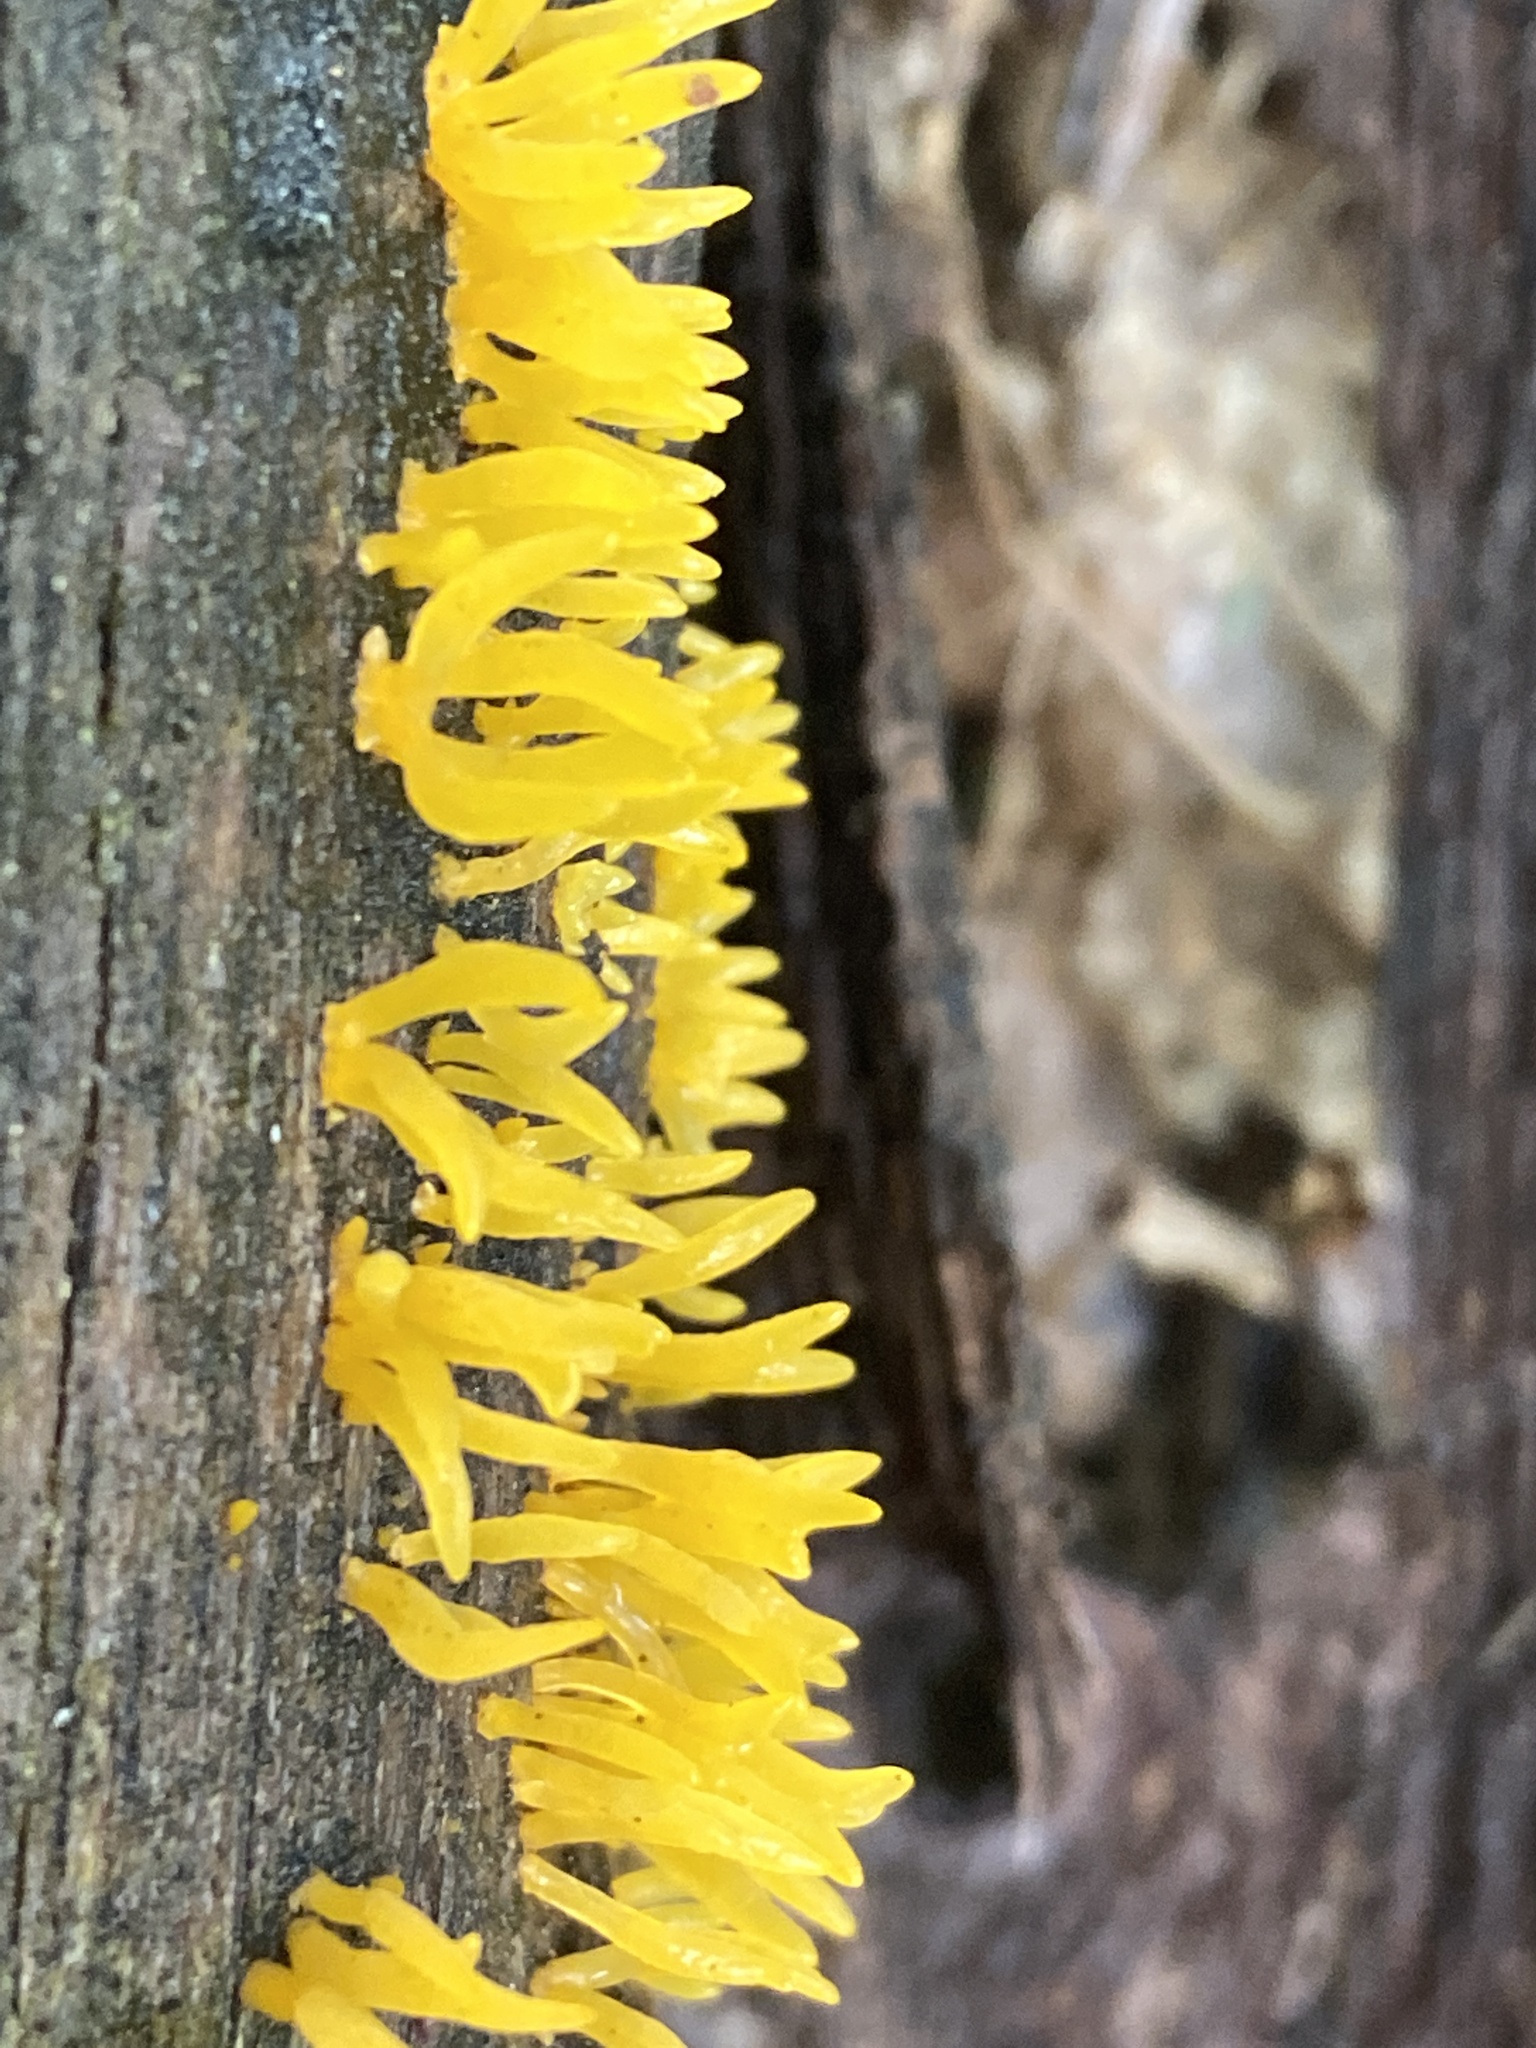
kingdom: Fungi
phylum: Basidiomycota
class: Dacrymycetes
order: Dacrymycetales
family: Dacrymycetaceae
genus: Calocera
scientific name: Calocera cornea
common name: Small stagshorn
